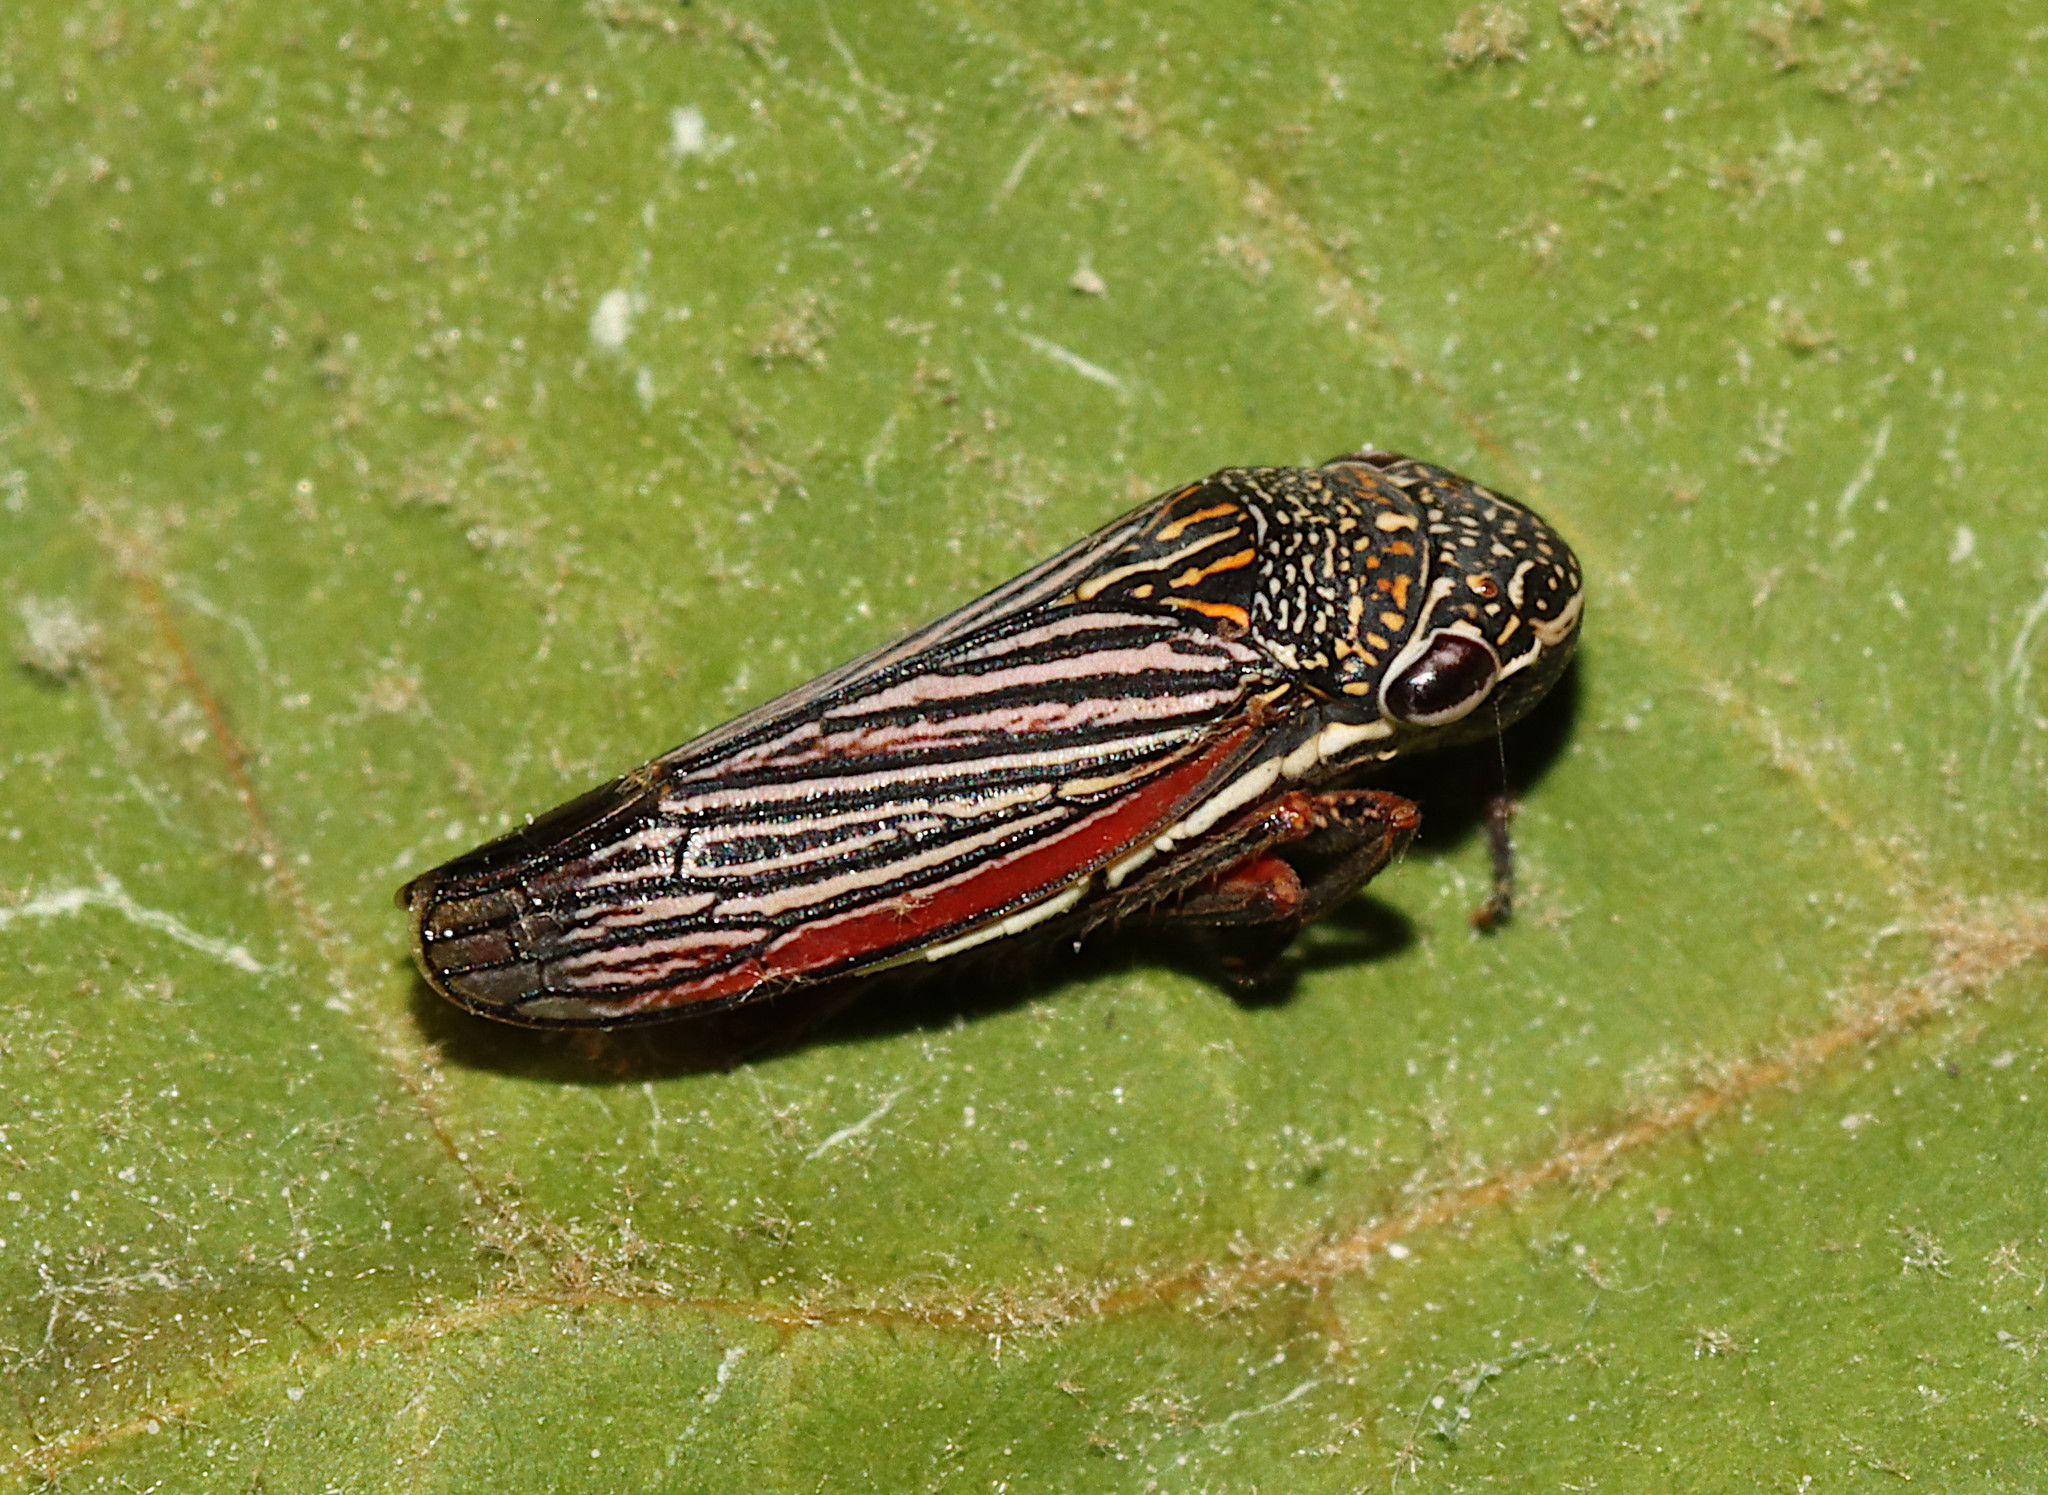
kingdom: Animalia
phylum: Arthropoda
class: Insecta
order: Hemiptera
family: Cicadellidae
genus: Cuerna
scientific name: Cuerna costalis
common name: Lateral-lined sharpshooter
